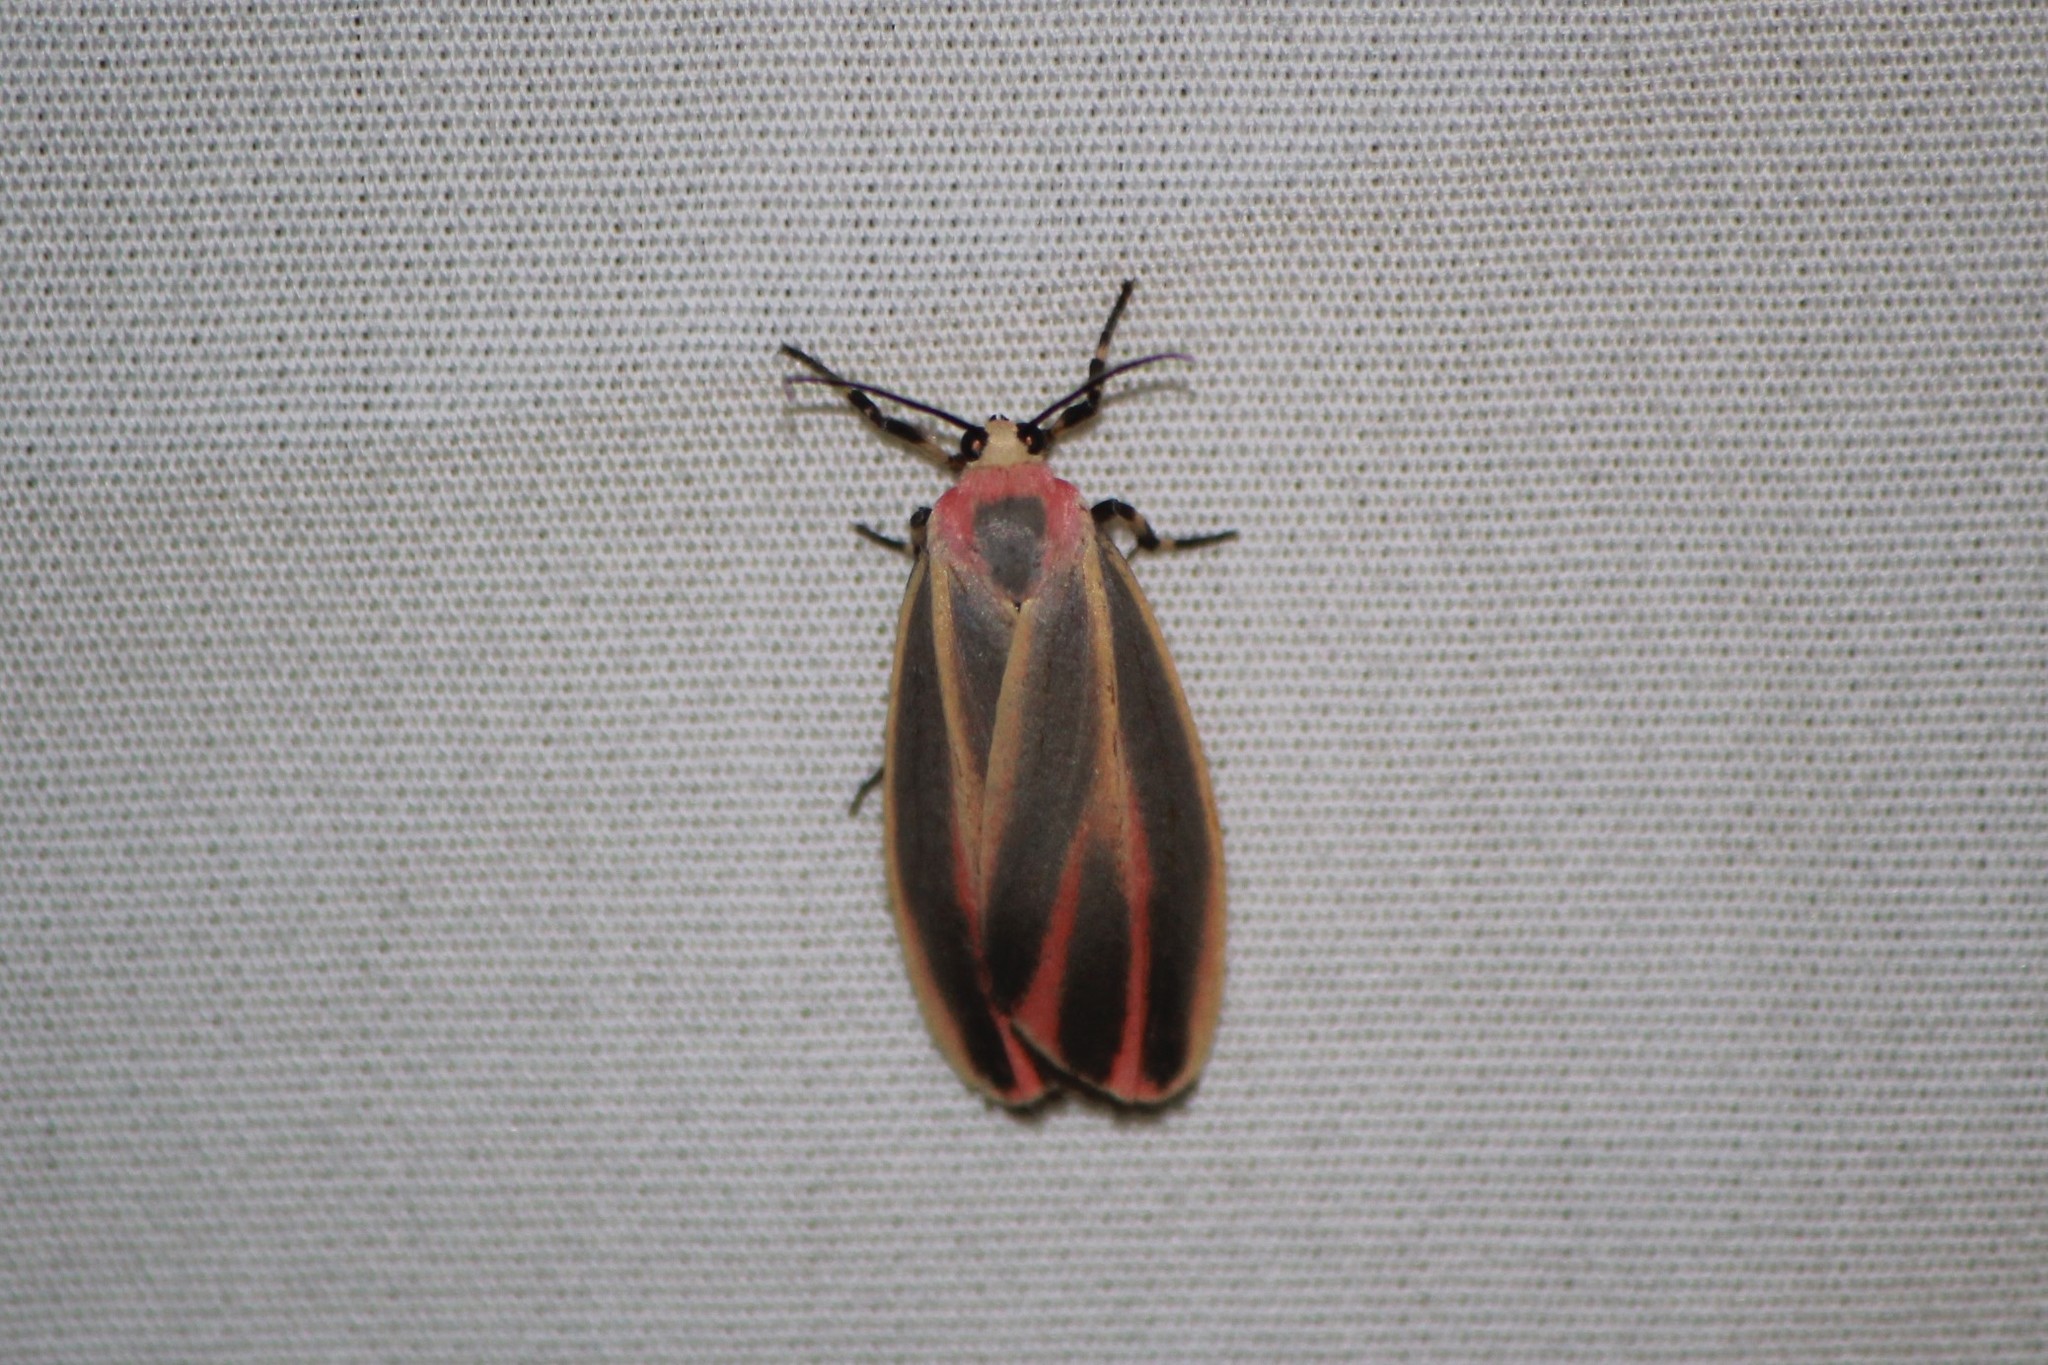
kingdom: Animalia
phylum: Arthropoda
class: Insecta
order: Lepidoptera
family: Erebidae
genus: Hypoprepia
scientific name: Hypoprepia fucosa
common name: Painted lichen moth
